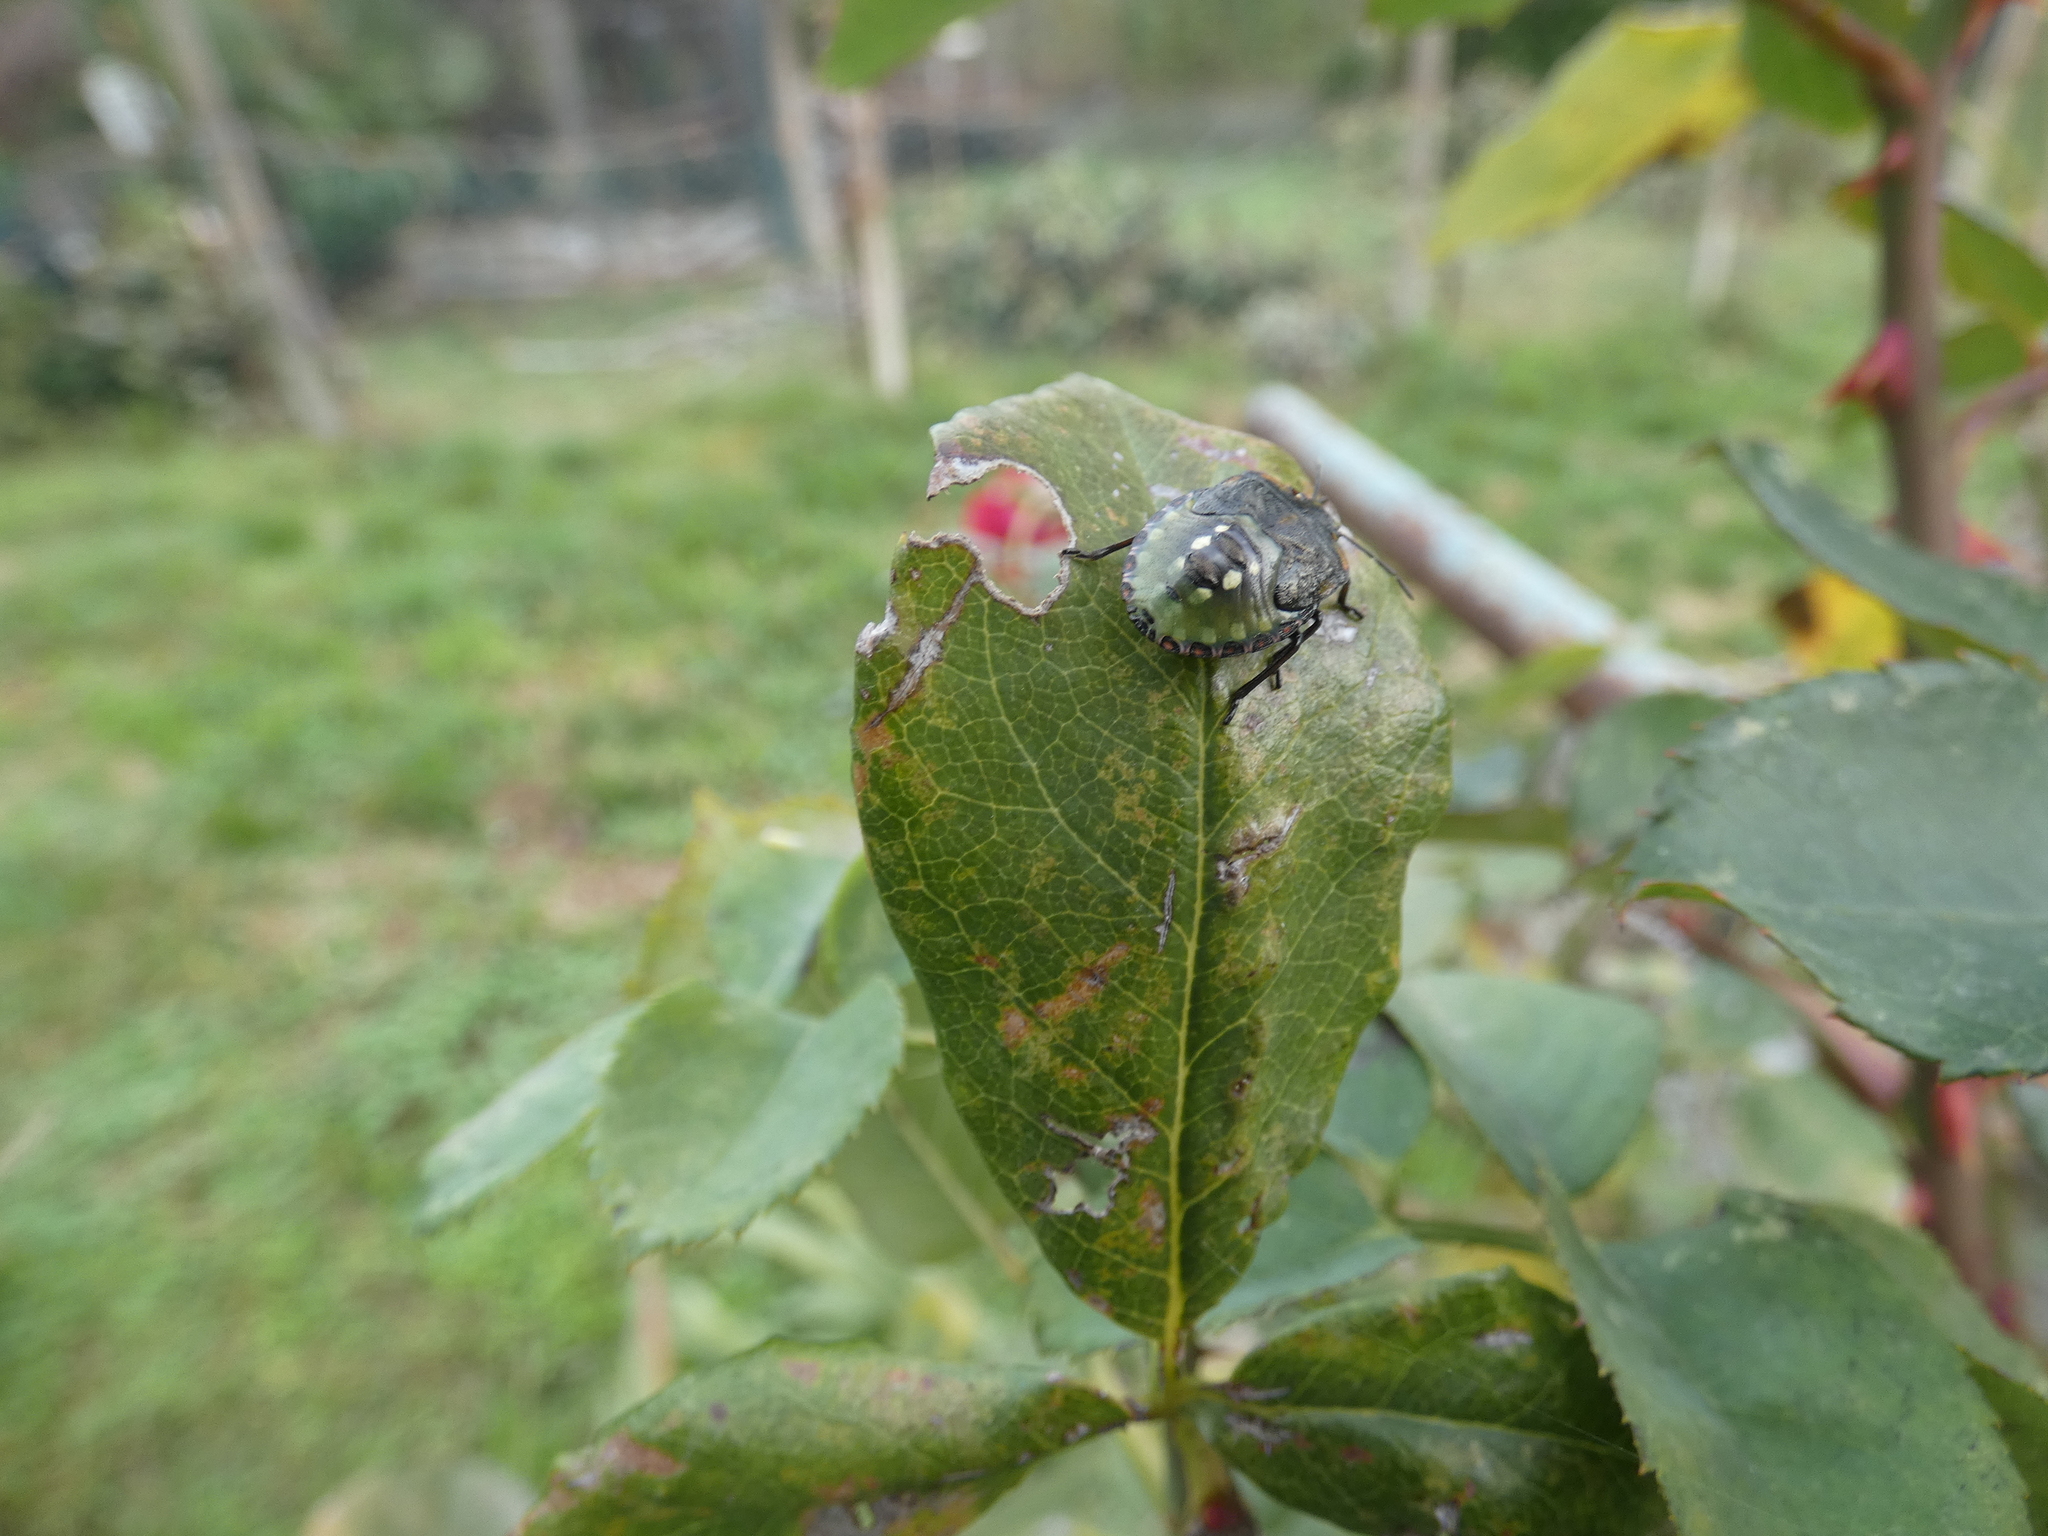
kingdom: Animalia
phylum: Arthropoda
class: Insecta
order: Hemiptera
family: Pentatomidae
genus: Nezara
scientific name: Nezara viridula
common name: Southern green stink bug
